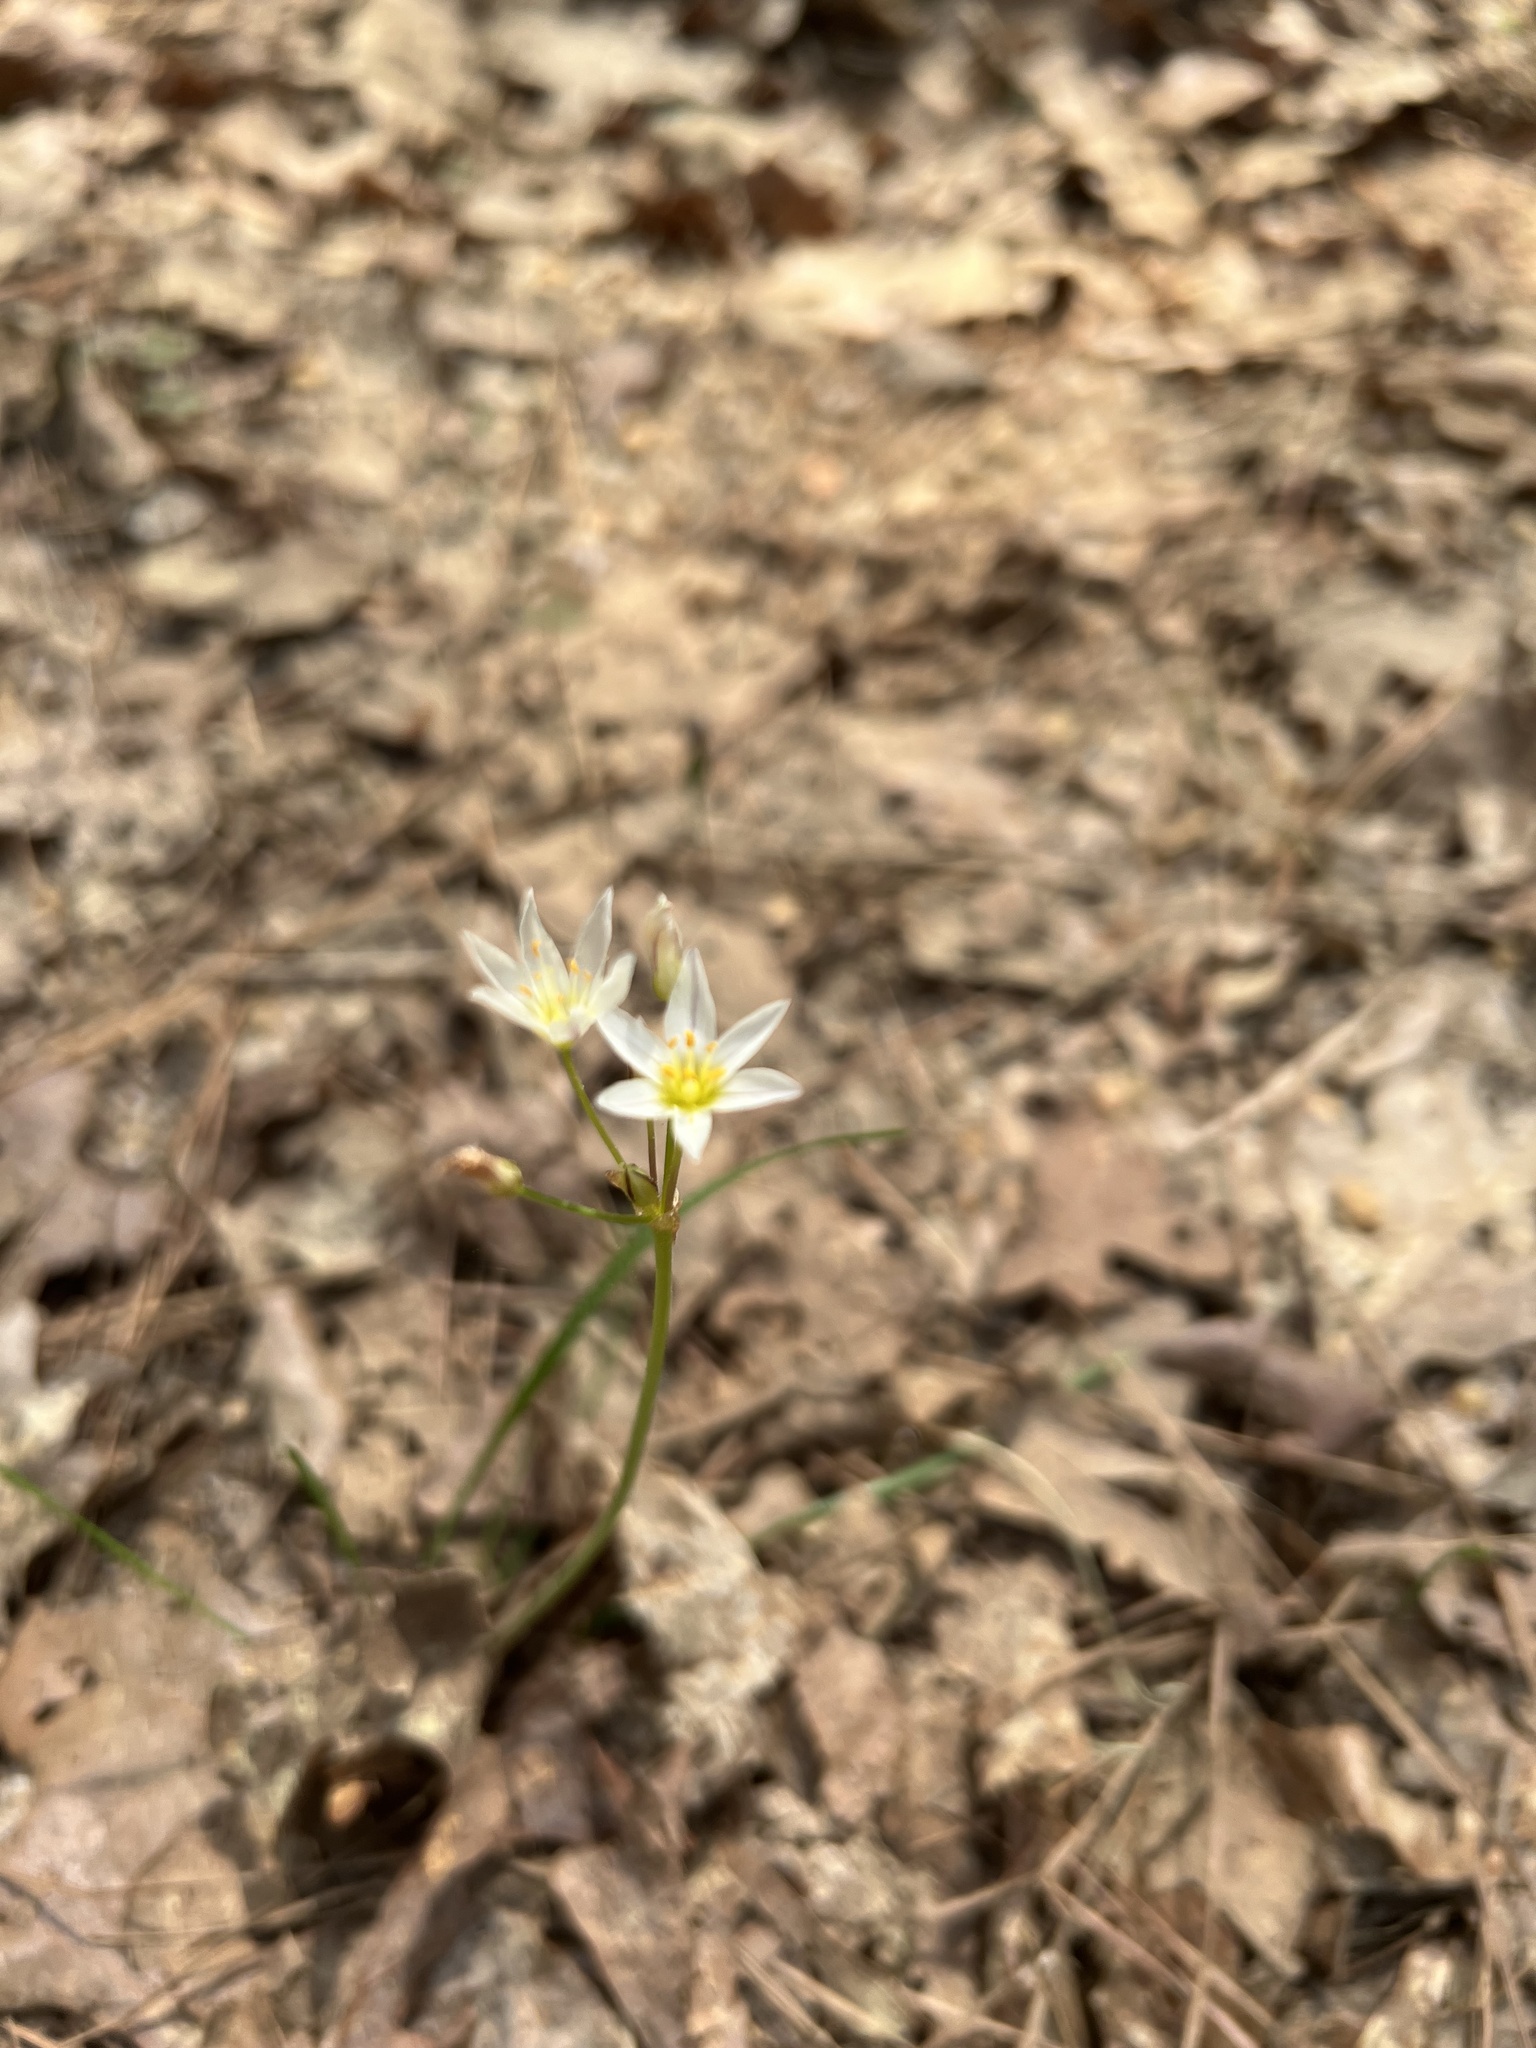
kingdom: Plantae
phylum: Tracheophyta
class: Liliopsida
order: Asparagales
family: Amaryllidaceae
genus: Nothoscordum
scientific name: Nothoscordum bivalve
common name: Crow-poison
